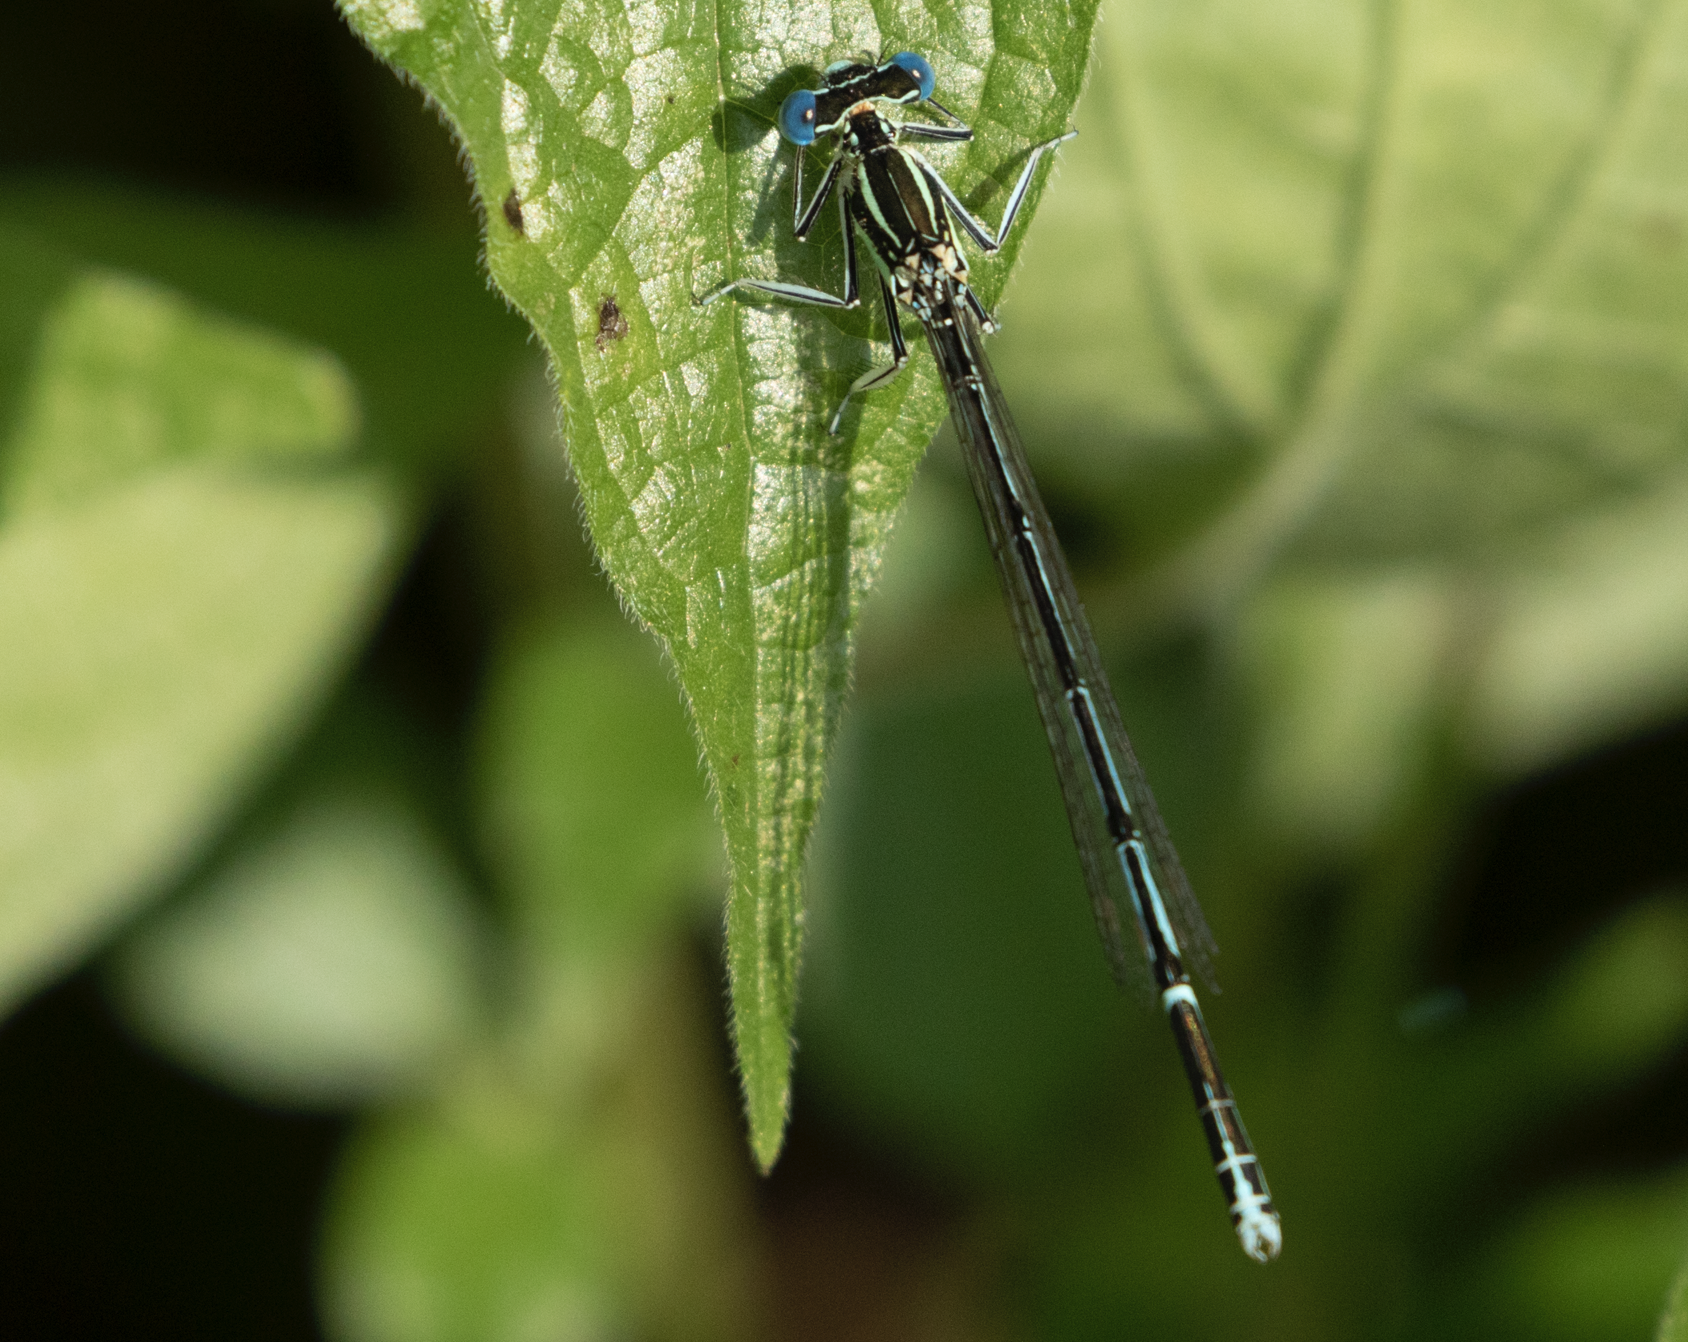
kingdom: Animalia
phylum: Arthropoda
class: Insecta
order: Odonata
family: Platycnemididae
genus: Platycnemis
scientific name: Platycnemis pennipes
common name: White-legged damselfly
